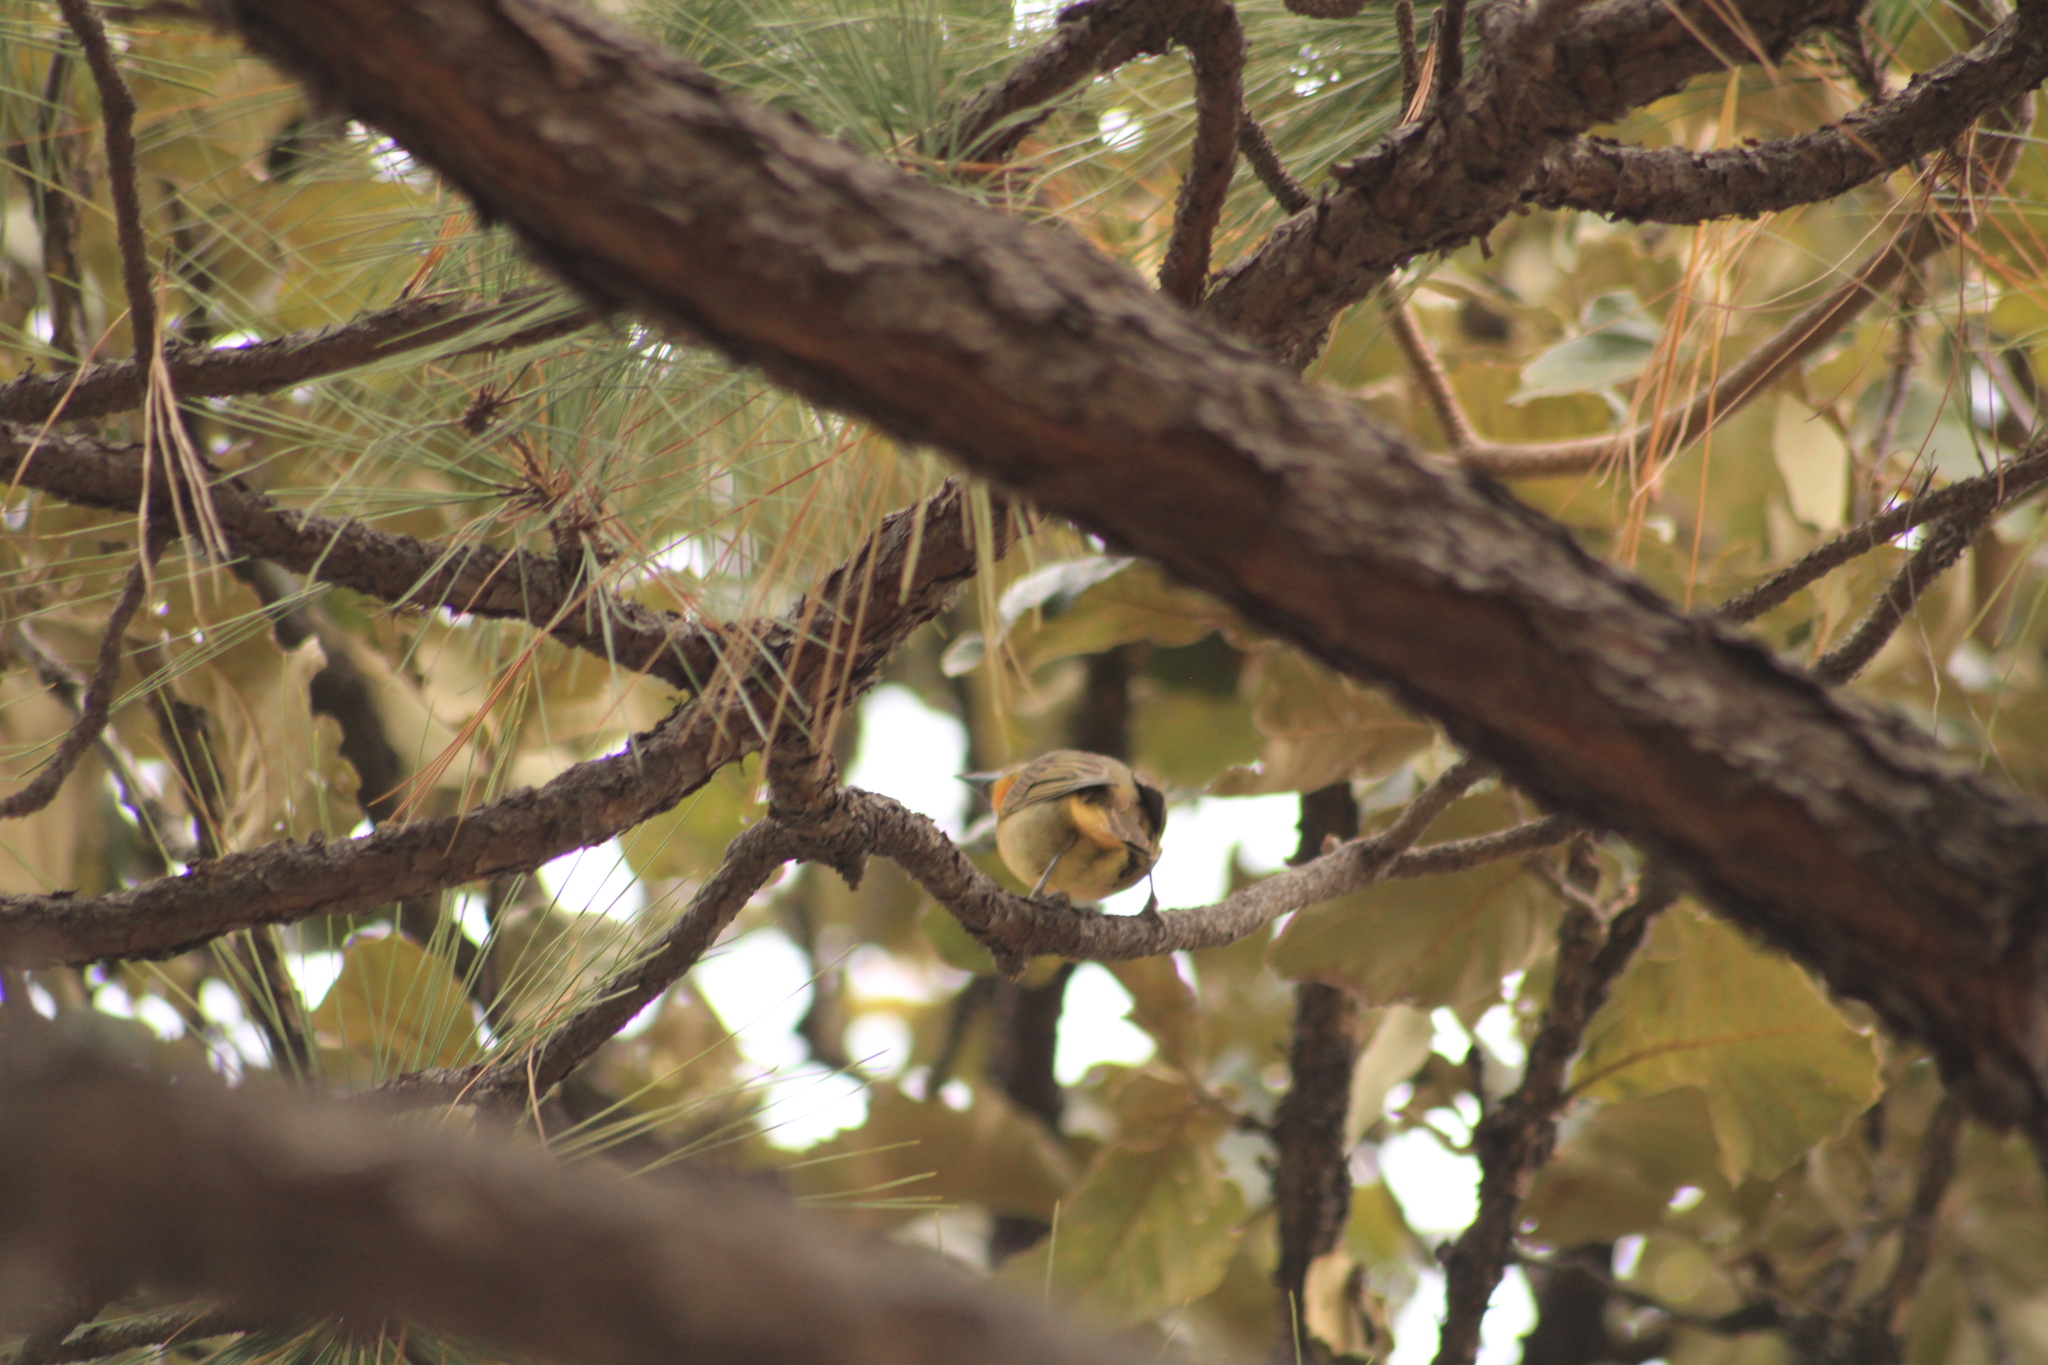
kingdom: Animalia
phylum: Chordata
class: Aves
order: Passeriformes
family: Cardinalidae
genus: Piranga
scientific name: Piranga flava
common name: Red tanager
